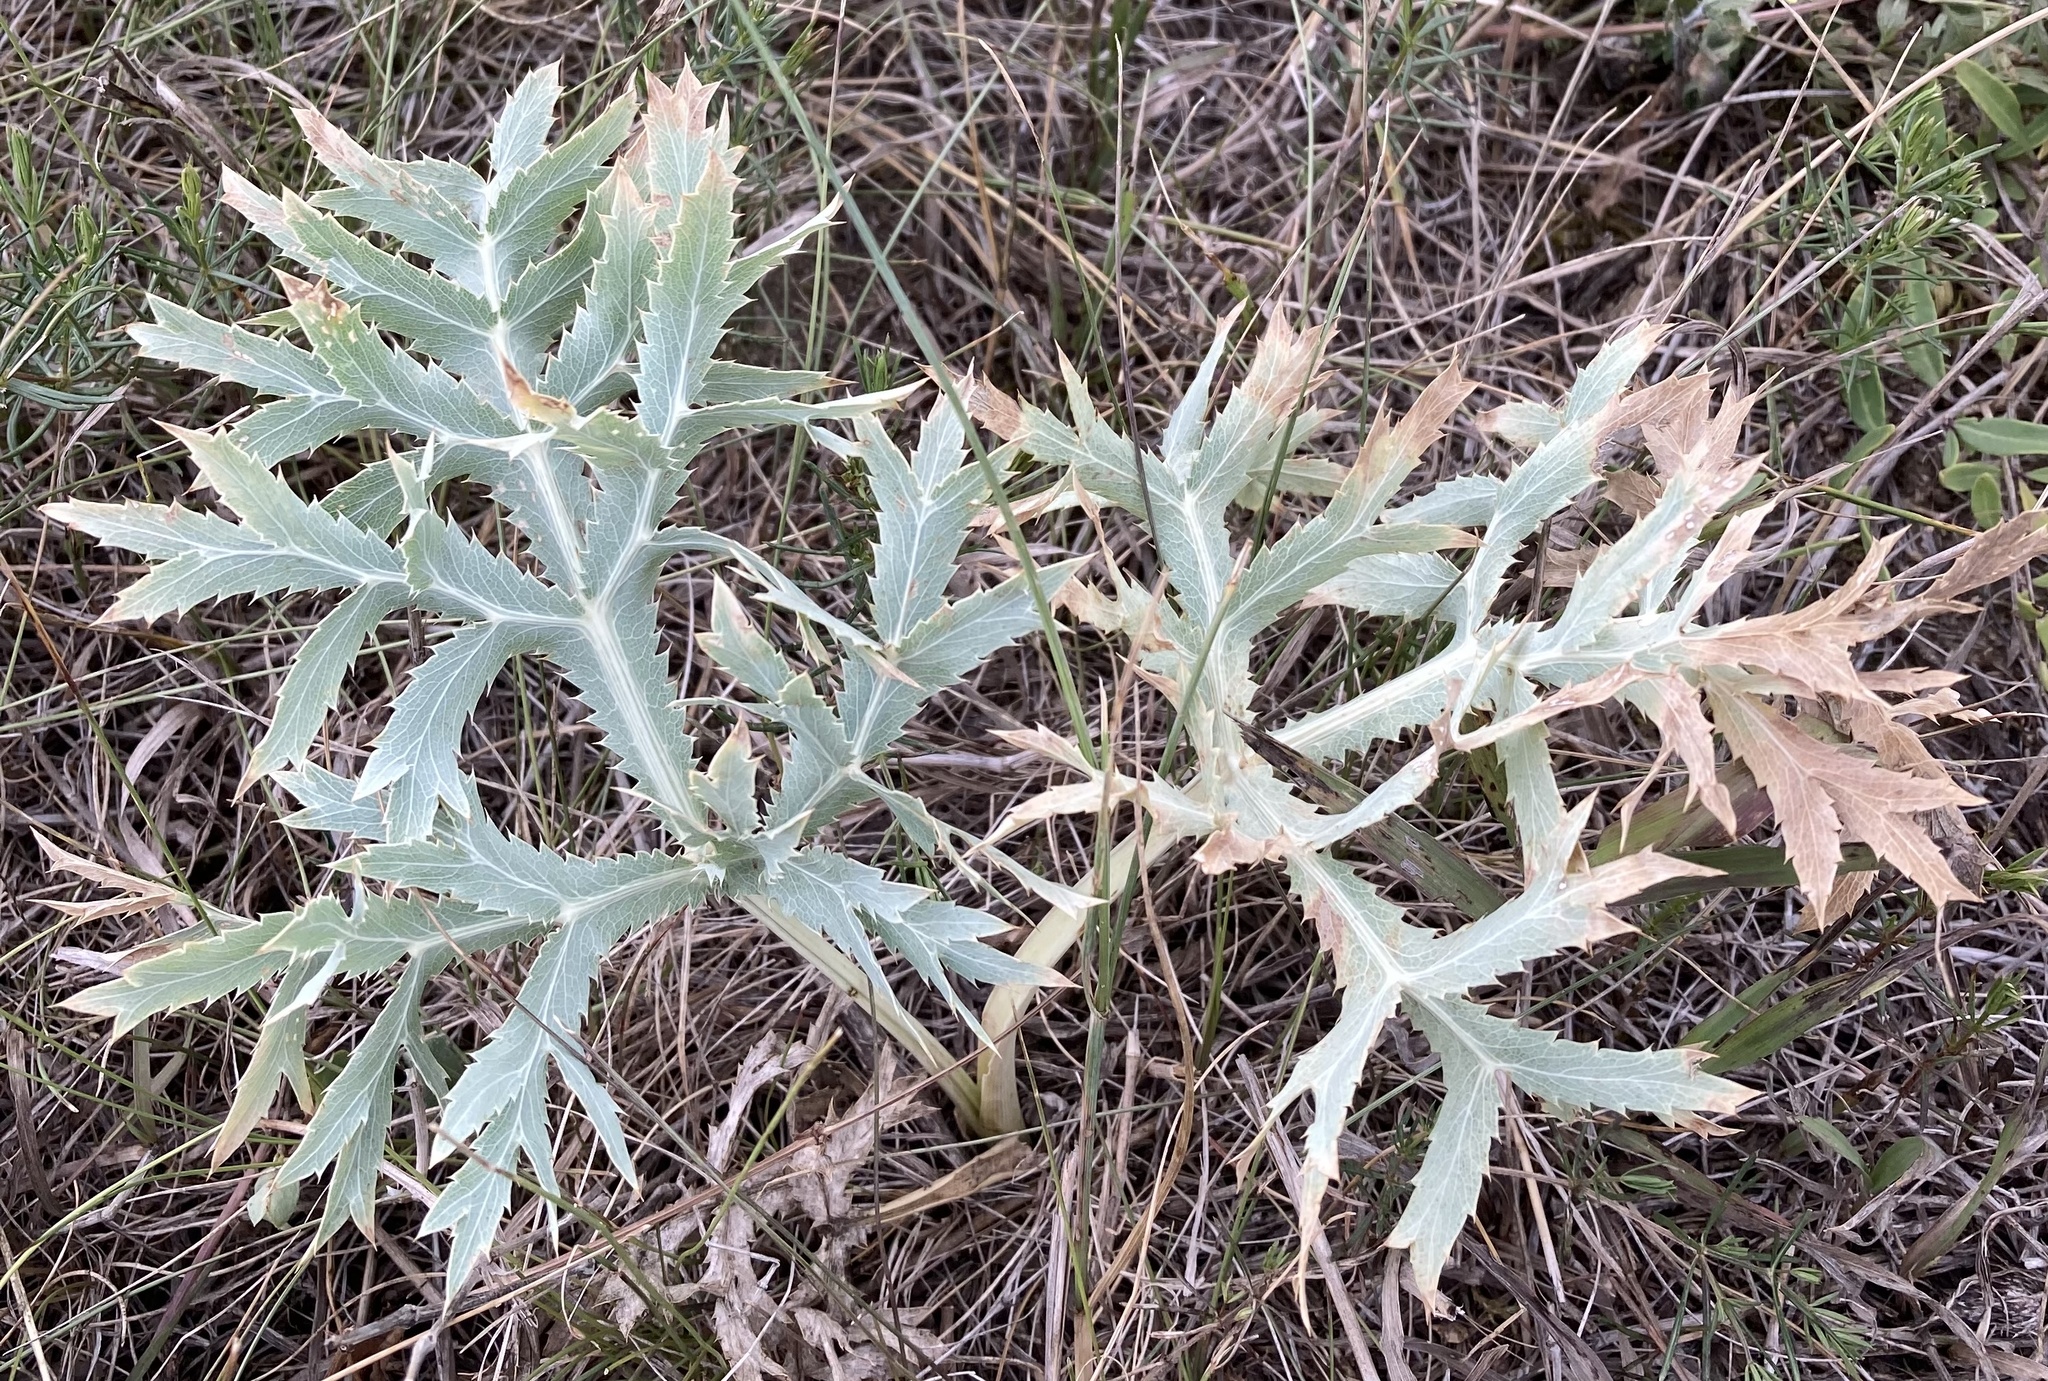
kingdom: Plantae
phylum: Tracheophyta
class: Magnoliopsida
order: Apiales
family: Apiaceae
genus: Eryngium
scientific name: Eryngium campestre
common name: Field eryngo
